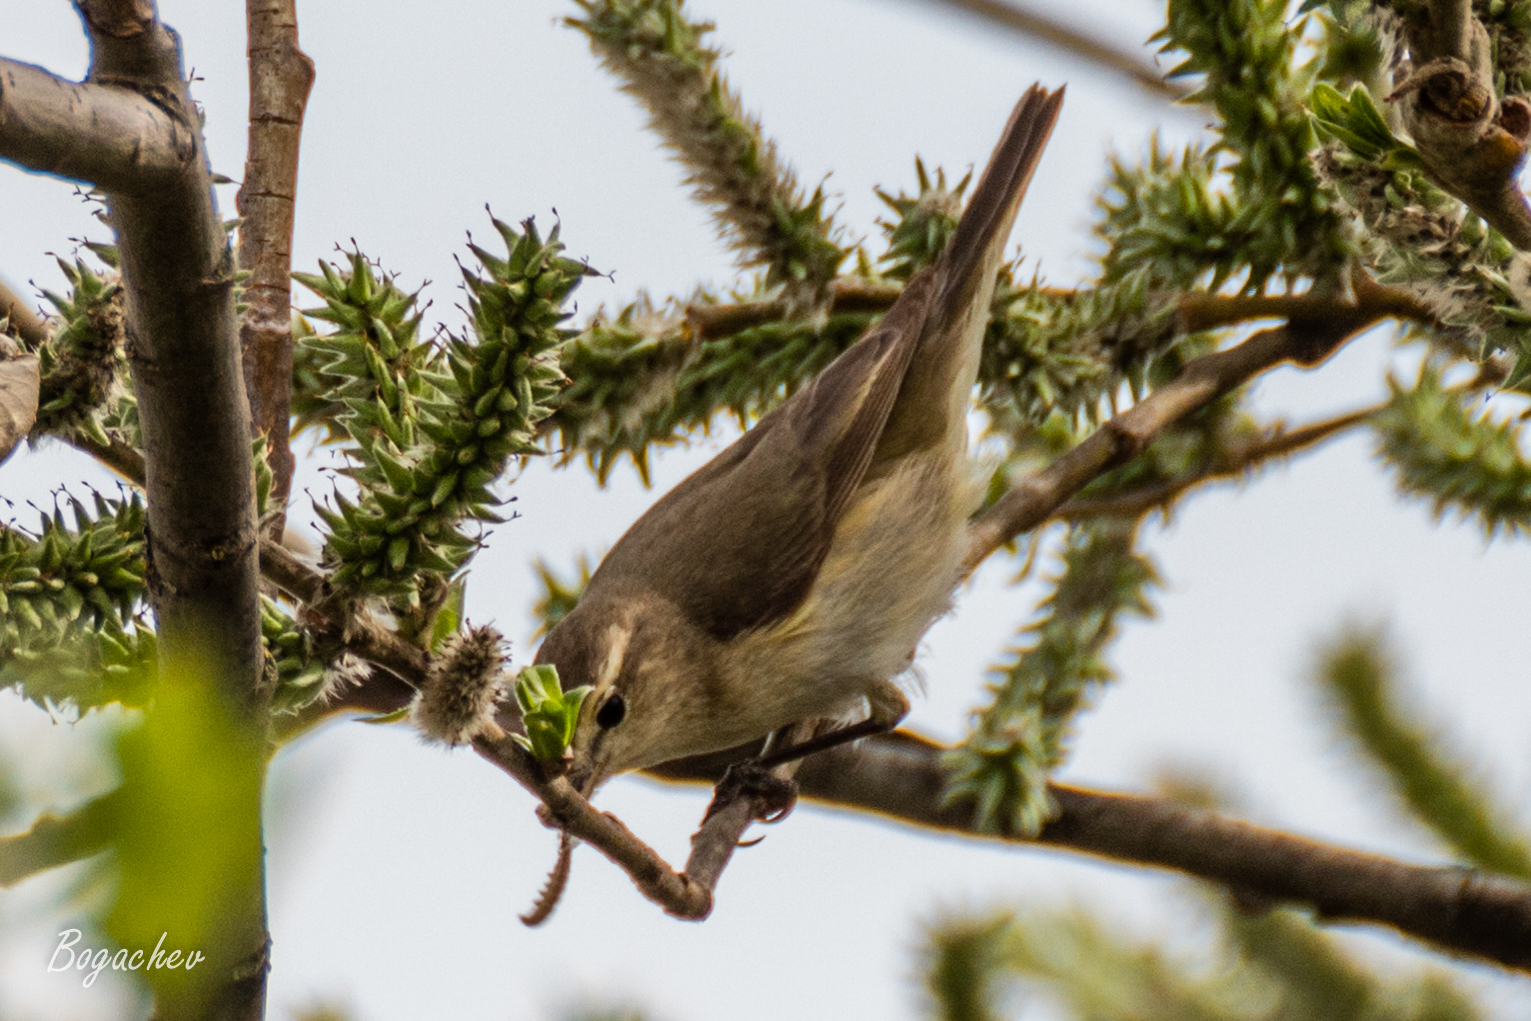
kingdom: Animalia
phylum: Chordata
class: Aves
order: Passeriformes
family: Phylloscopidae
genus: Phylloscopus
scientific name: Phylloscopus collybita
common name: Common chiffchaff
